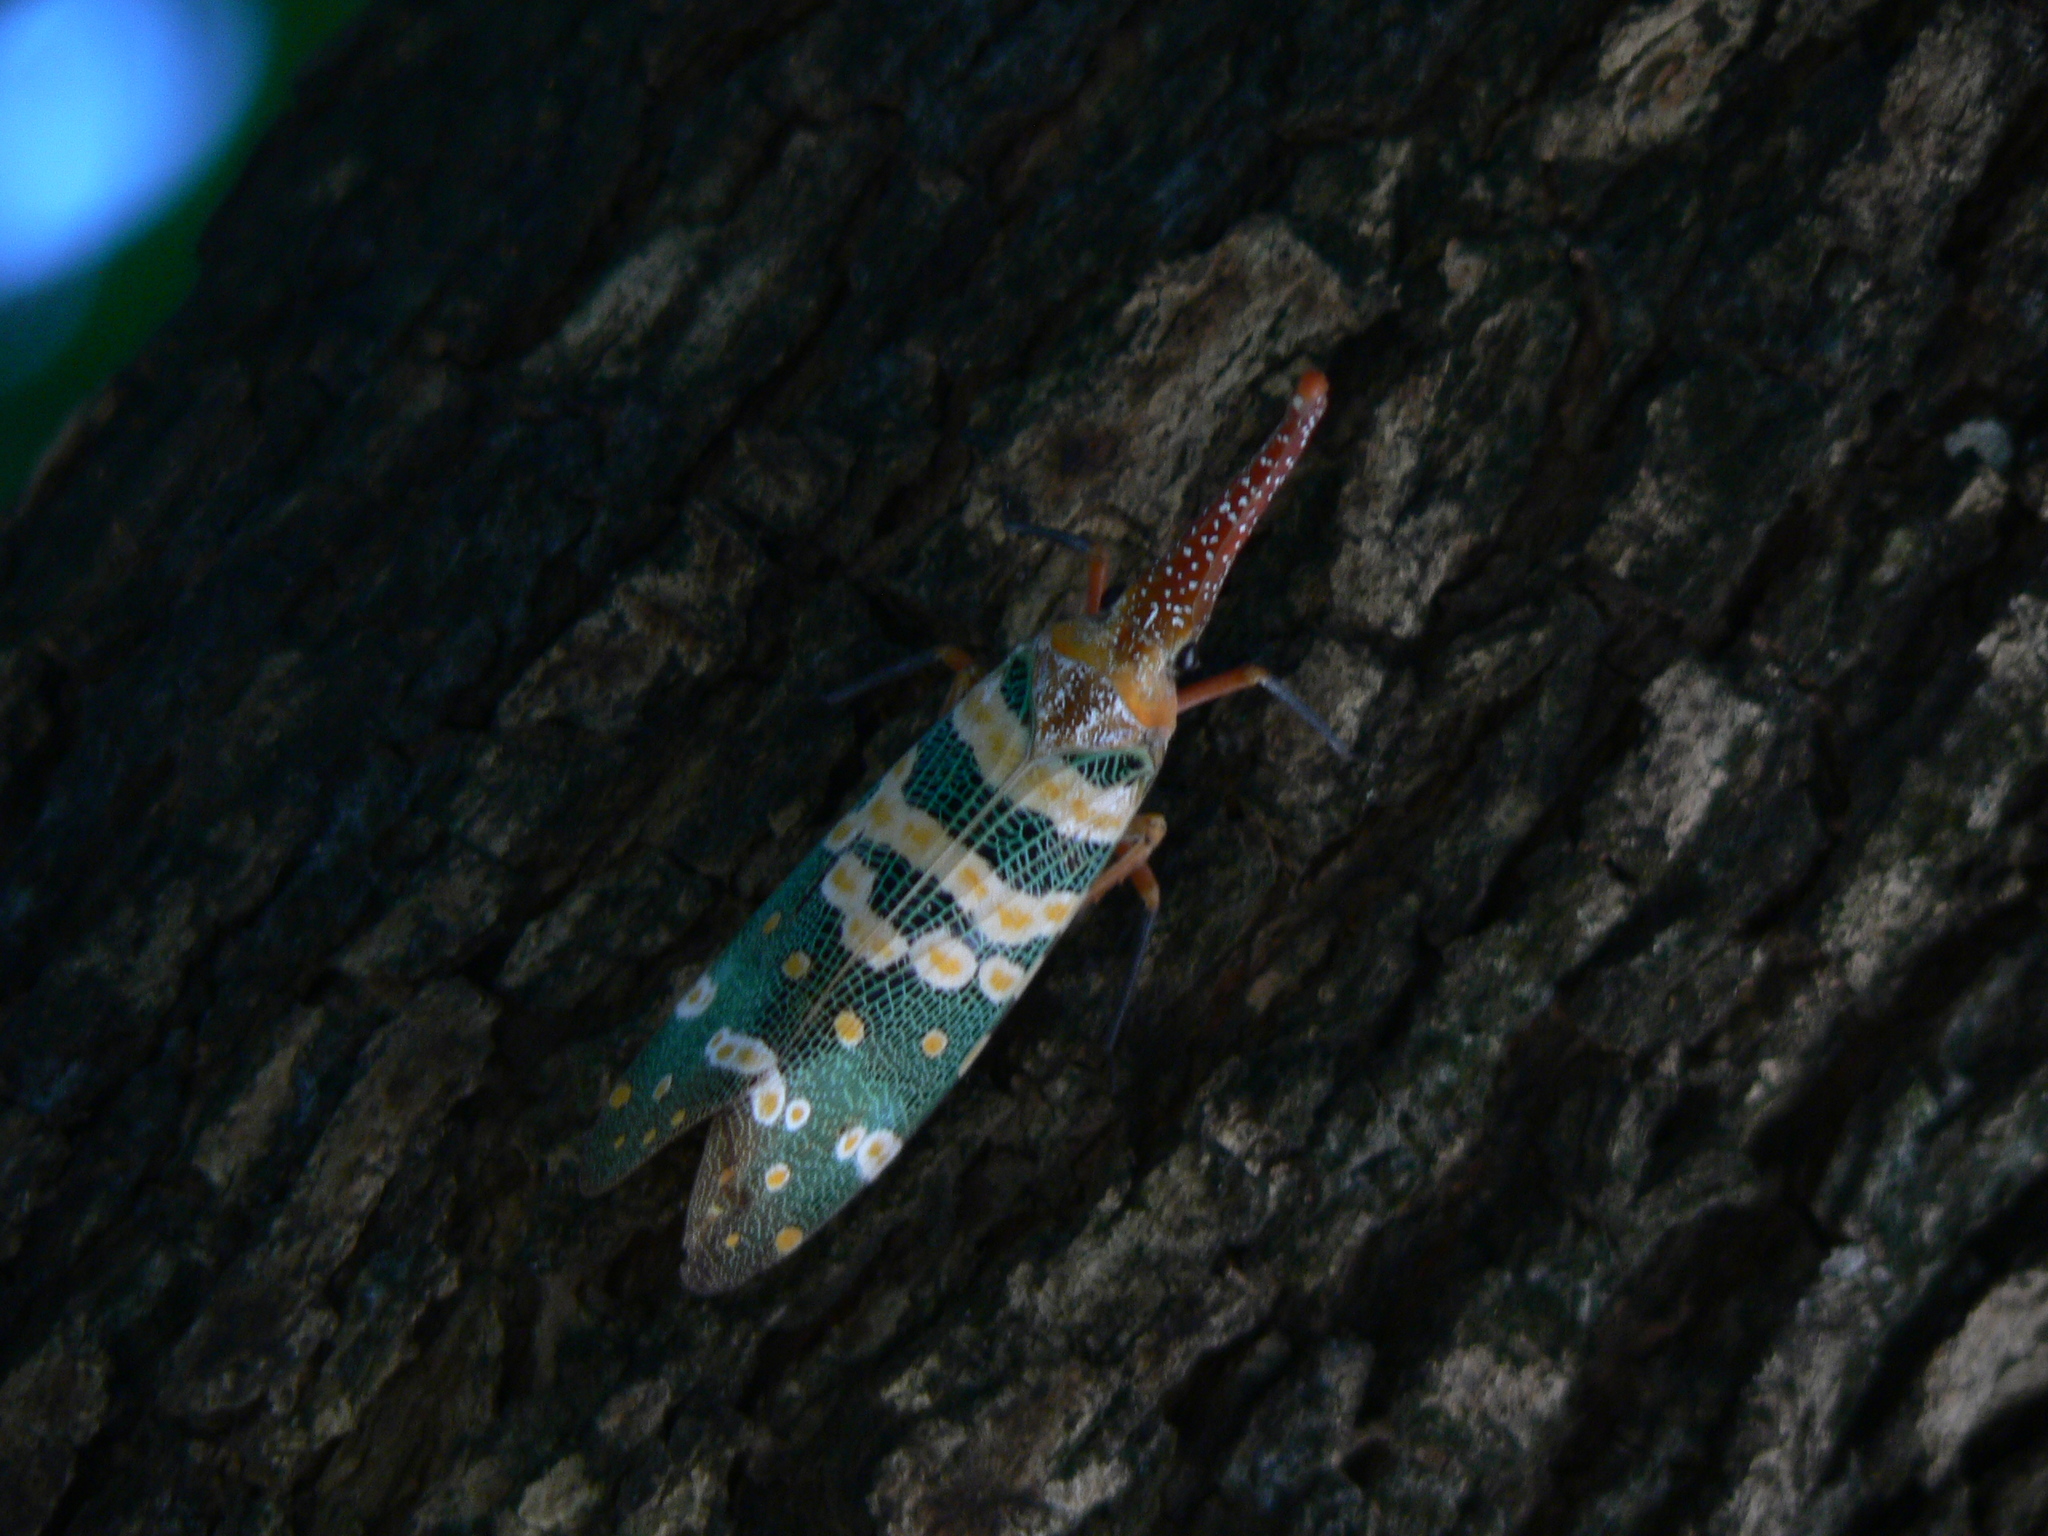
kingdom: Animalia
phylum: Arthropoda
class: Insecta
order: Hemiptera
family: Fulgoridae
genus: Pyrops
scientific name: Pyrops candelaria
